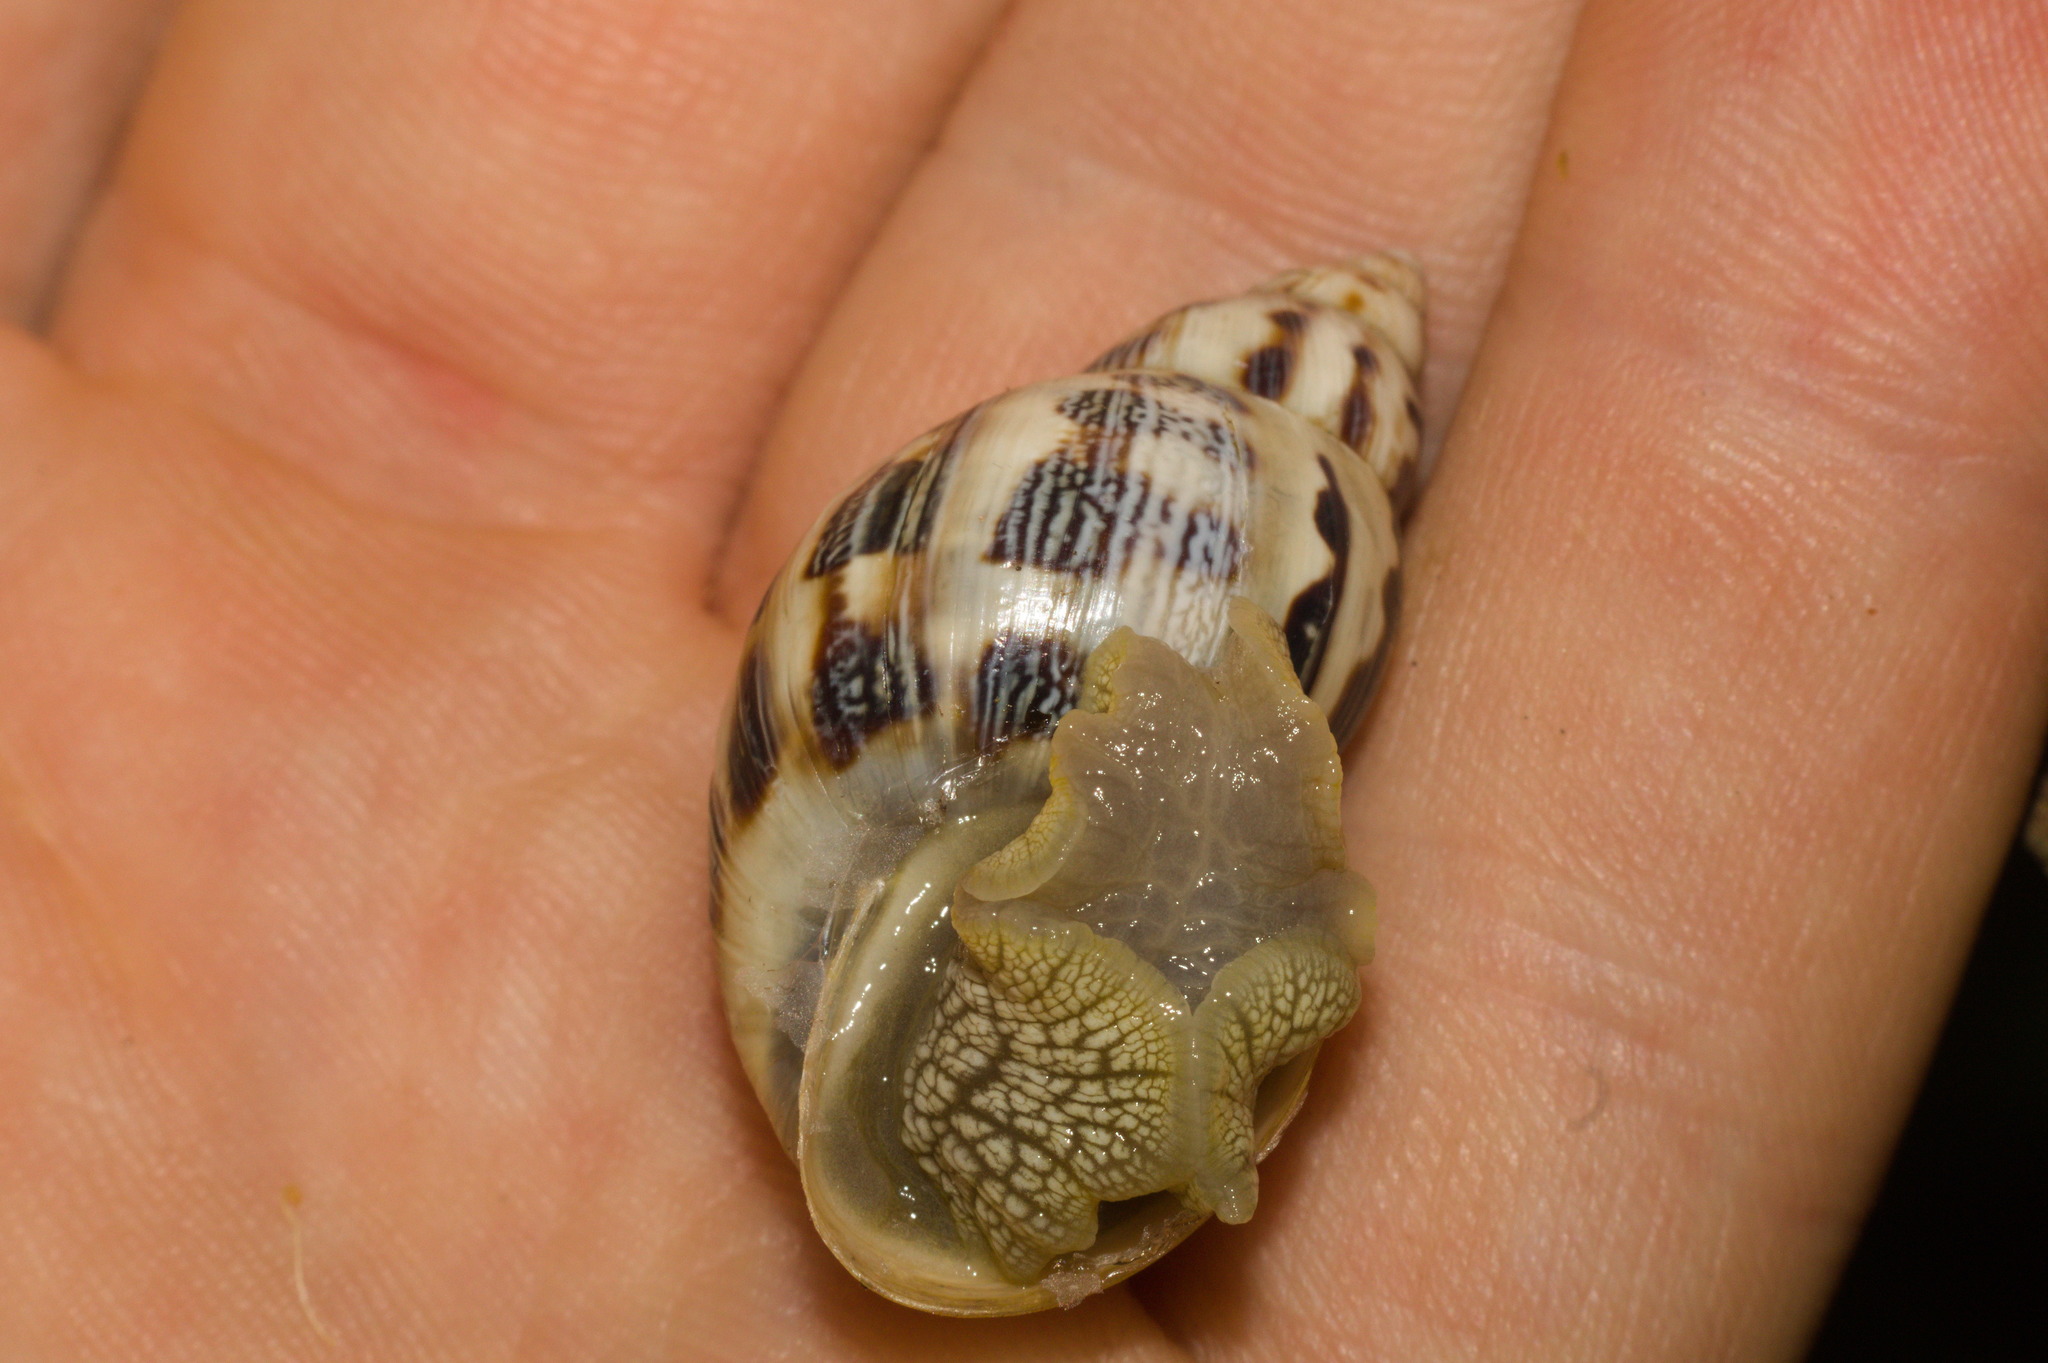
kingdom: Animalia
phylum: Mollusca
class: Gastropoda
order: Stylommatophora
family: Bulimulidae
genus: Drymaeus
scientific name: Drymaeus papyrifactus
